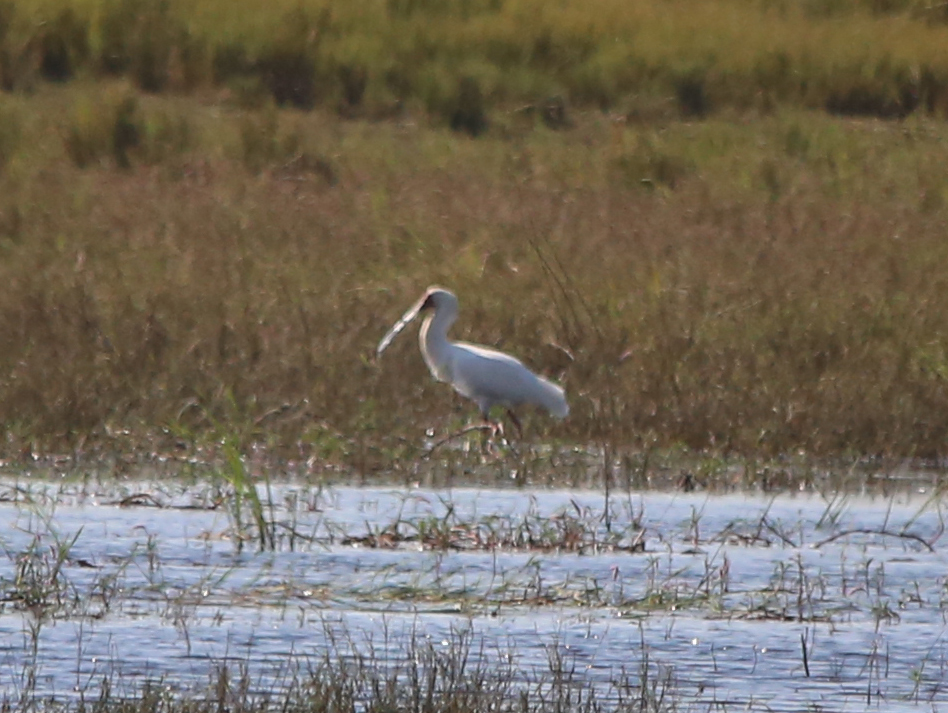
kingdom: Animalia
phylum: Chordata
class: Aves
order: Pelecaniformes
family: Threskiornithidae
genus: Platalea
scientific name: Platalea alba
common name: African spoonbill
